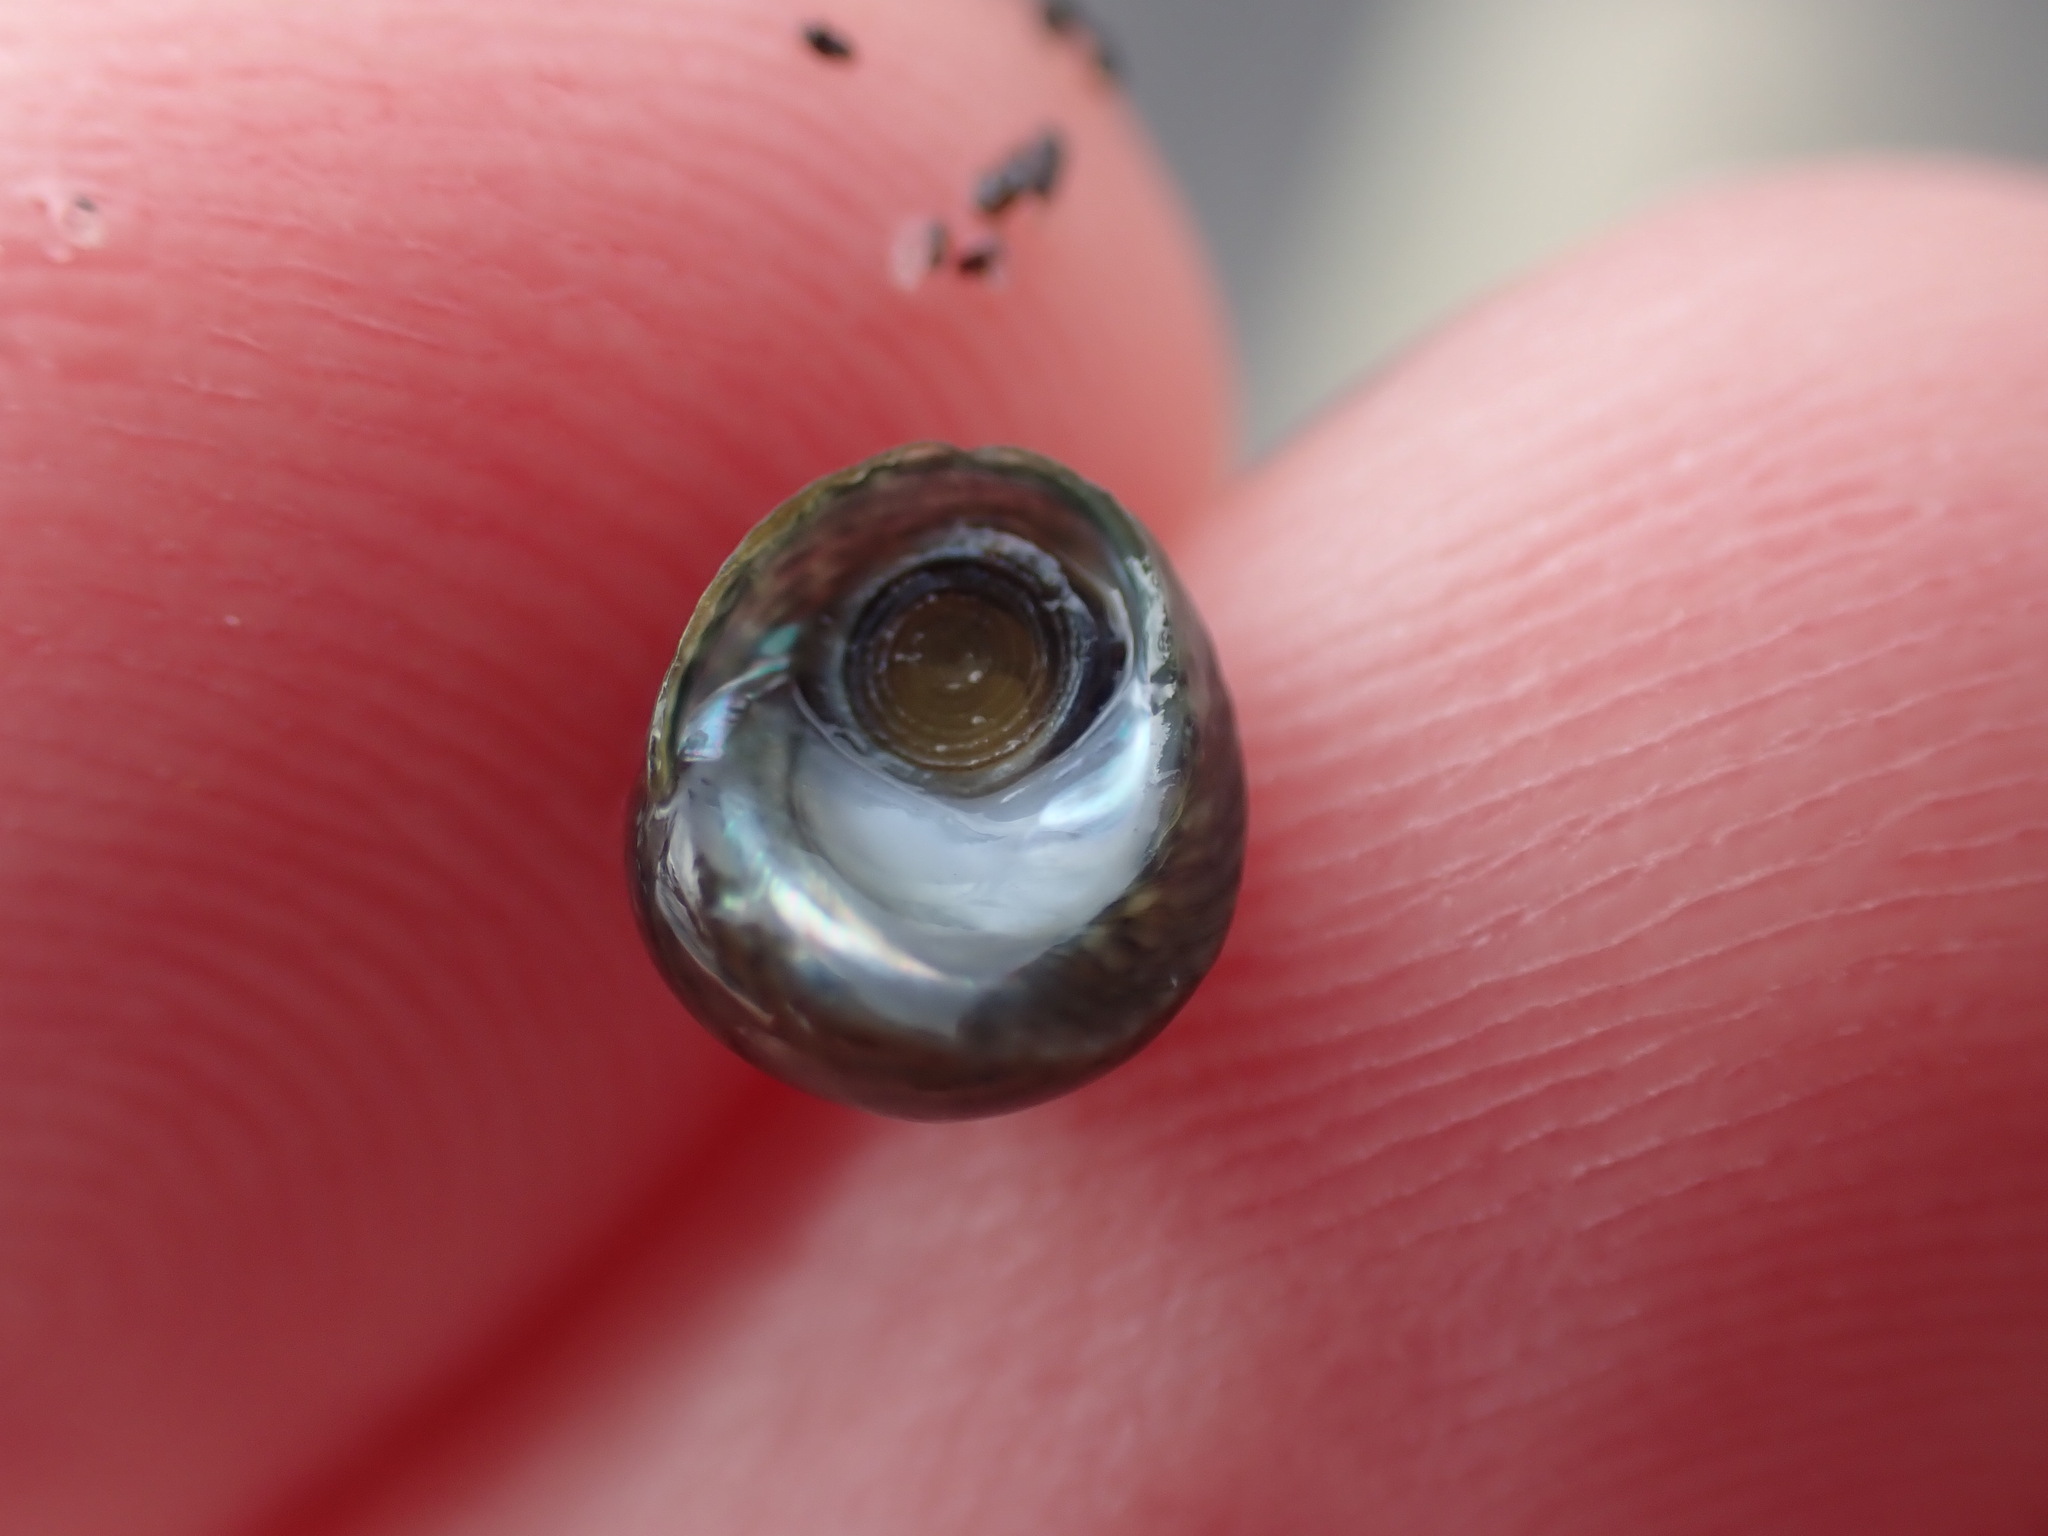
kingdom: Animalia
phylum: Mollusca
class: Gastropoda
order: Trochida
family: Trochidae
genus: Diloma
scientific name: Diloma coracinum
